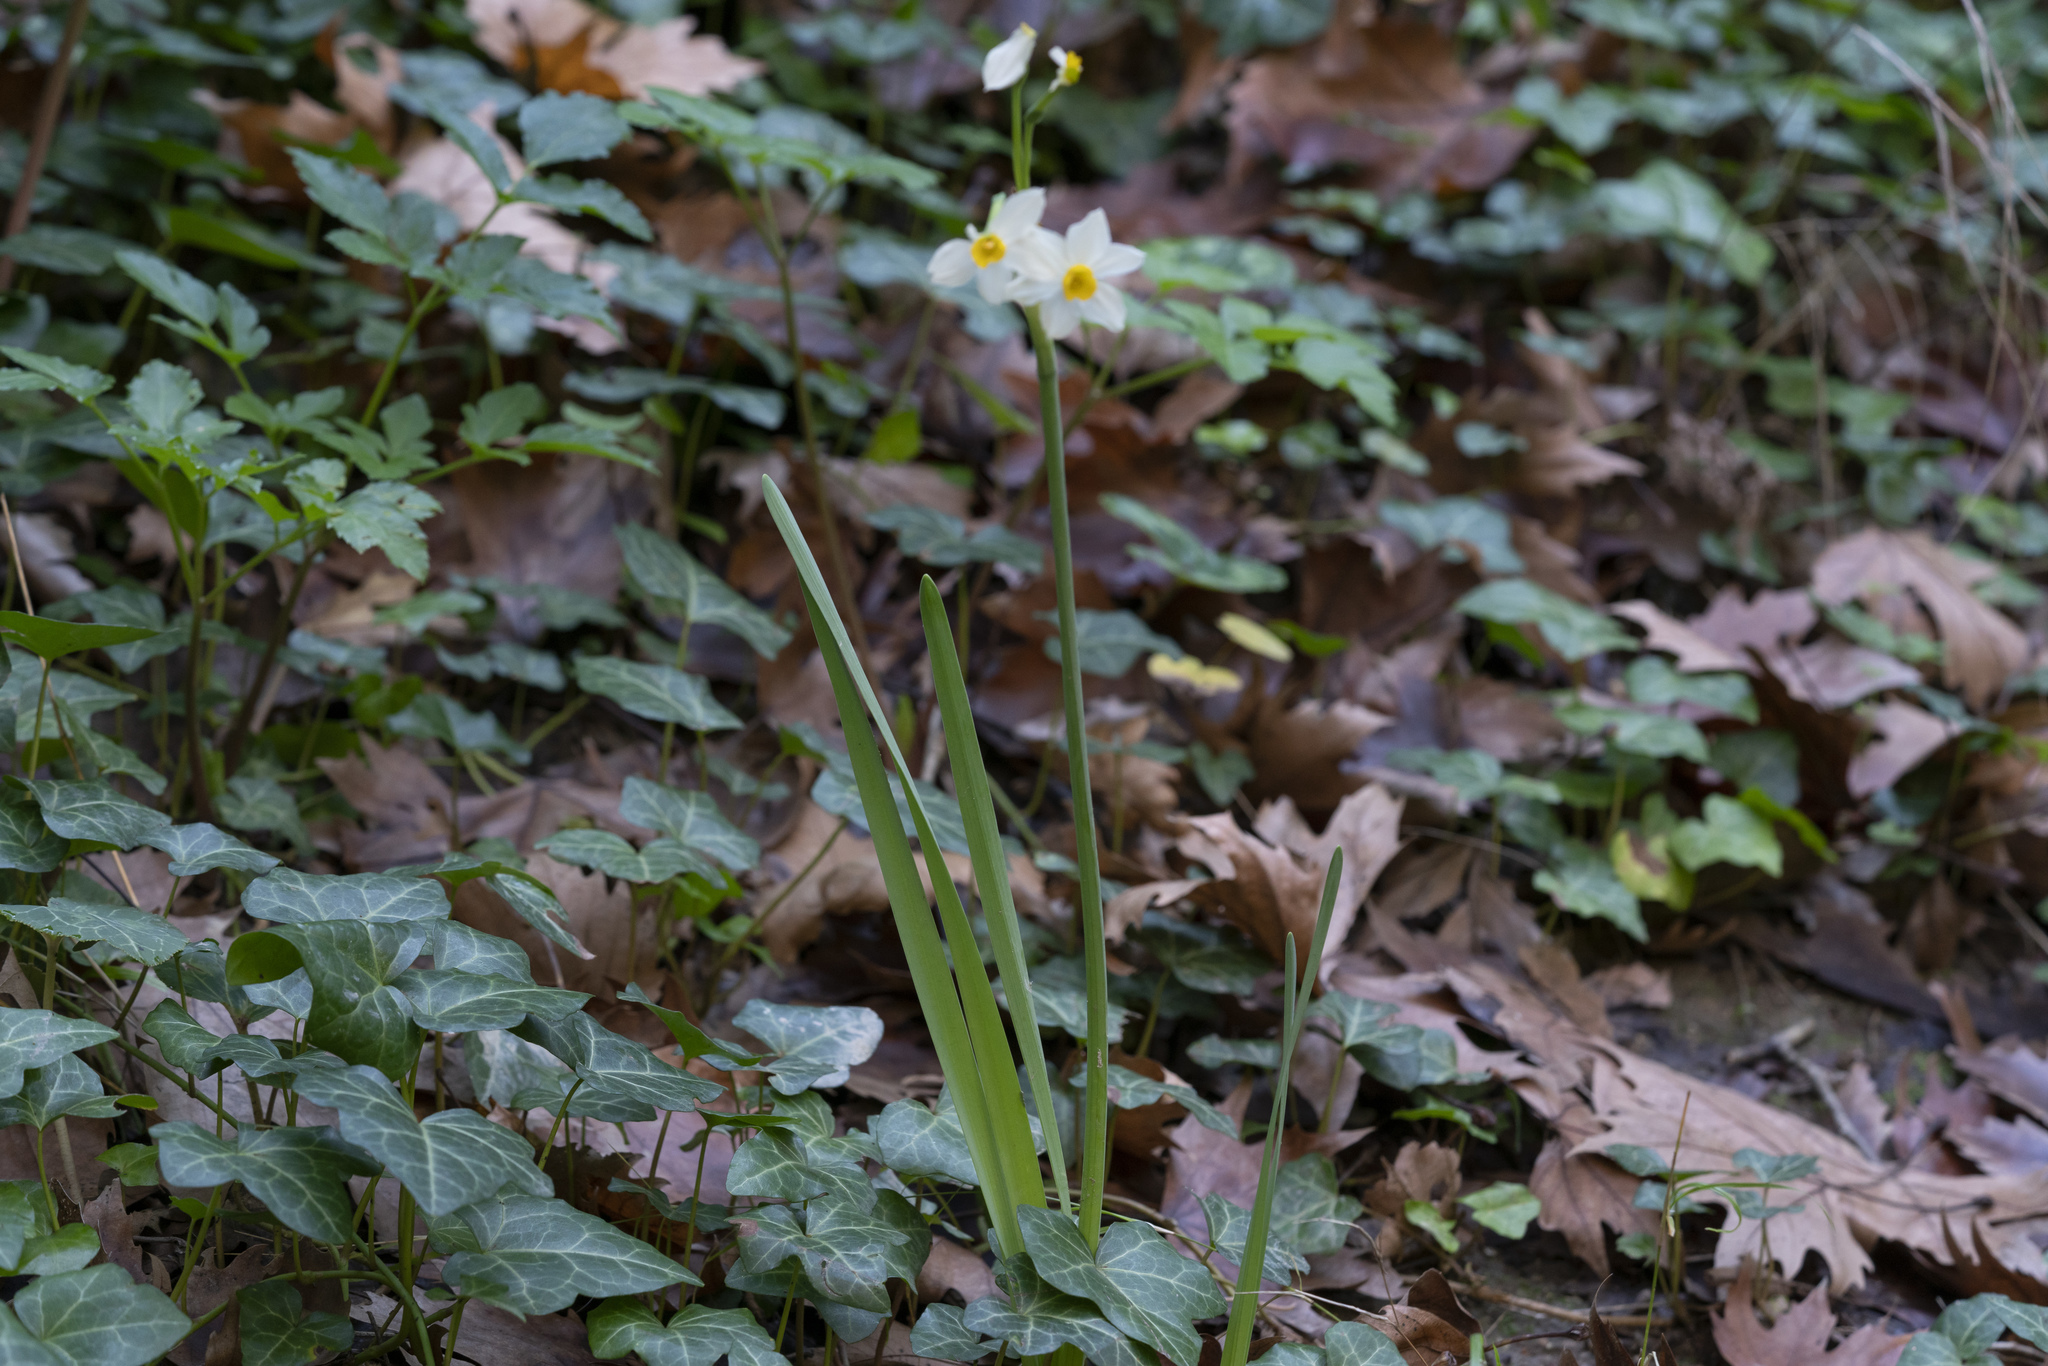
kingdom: Plantae
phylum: Tracheophyta
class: Liliopsida
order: Asparagales
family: Amaryllidaceae
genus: Narcissus
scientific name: Narcissus tazetta
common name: Bunch-flowered daffodil
